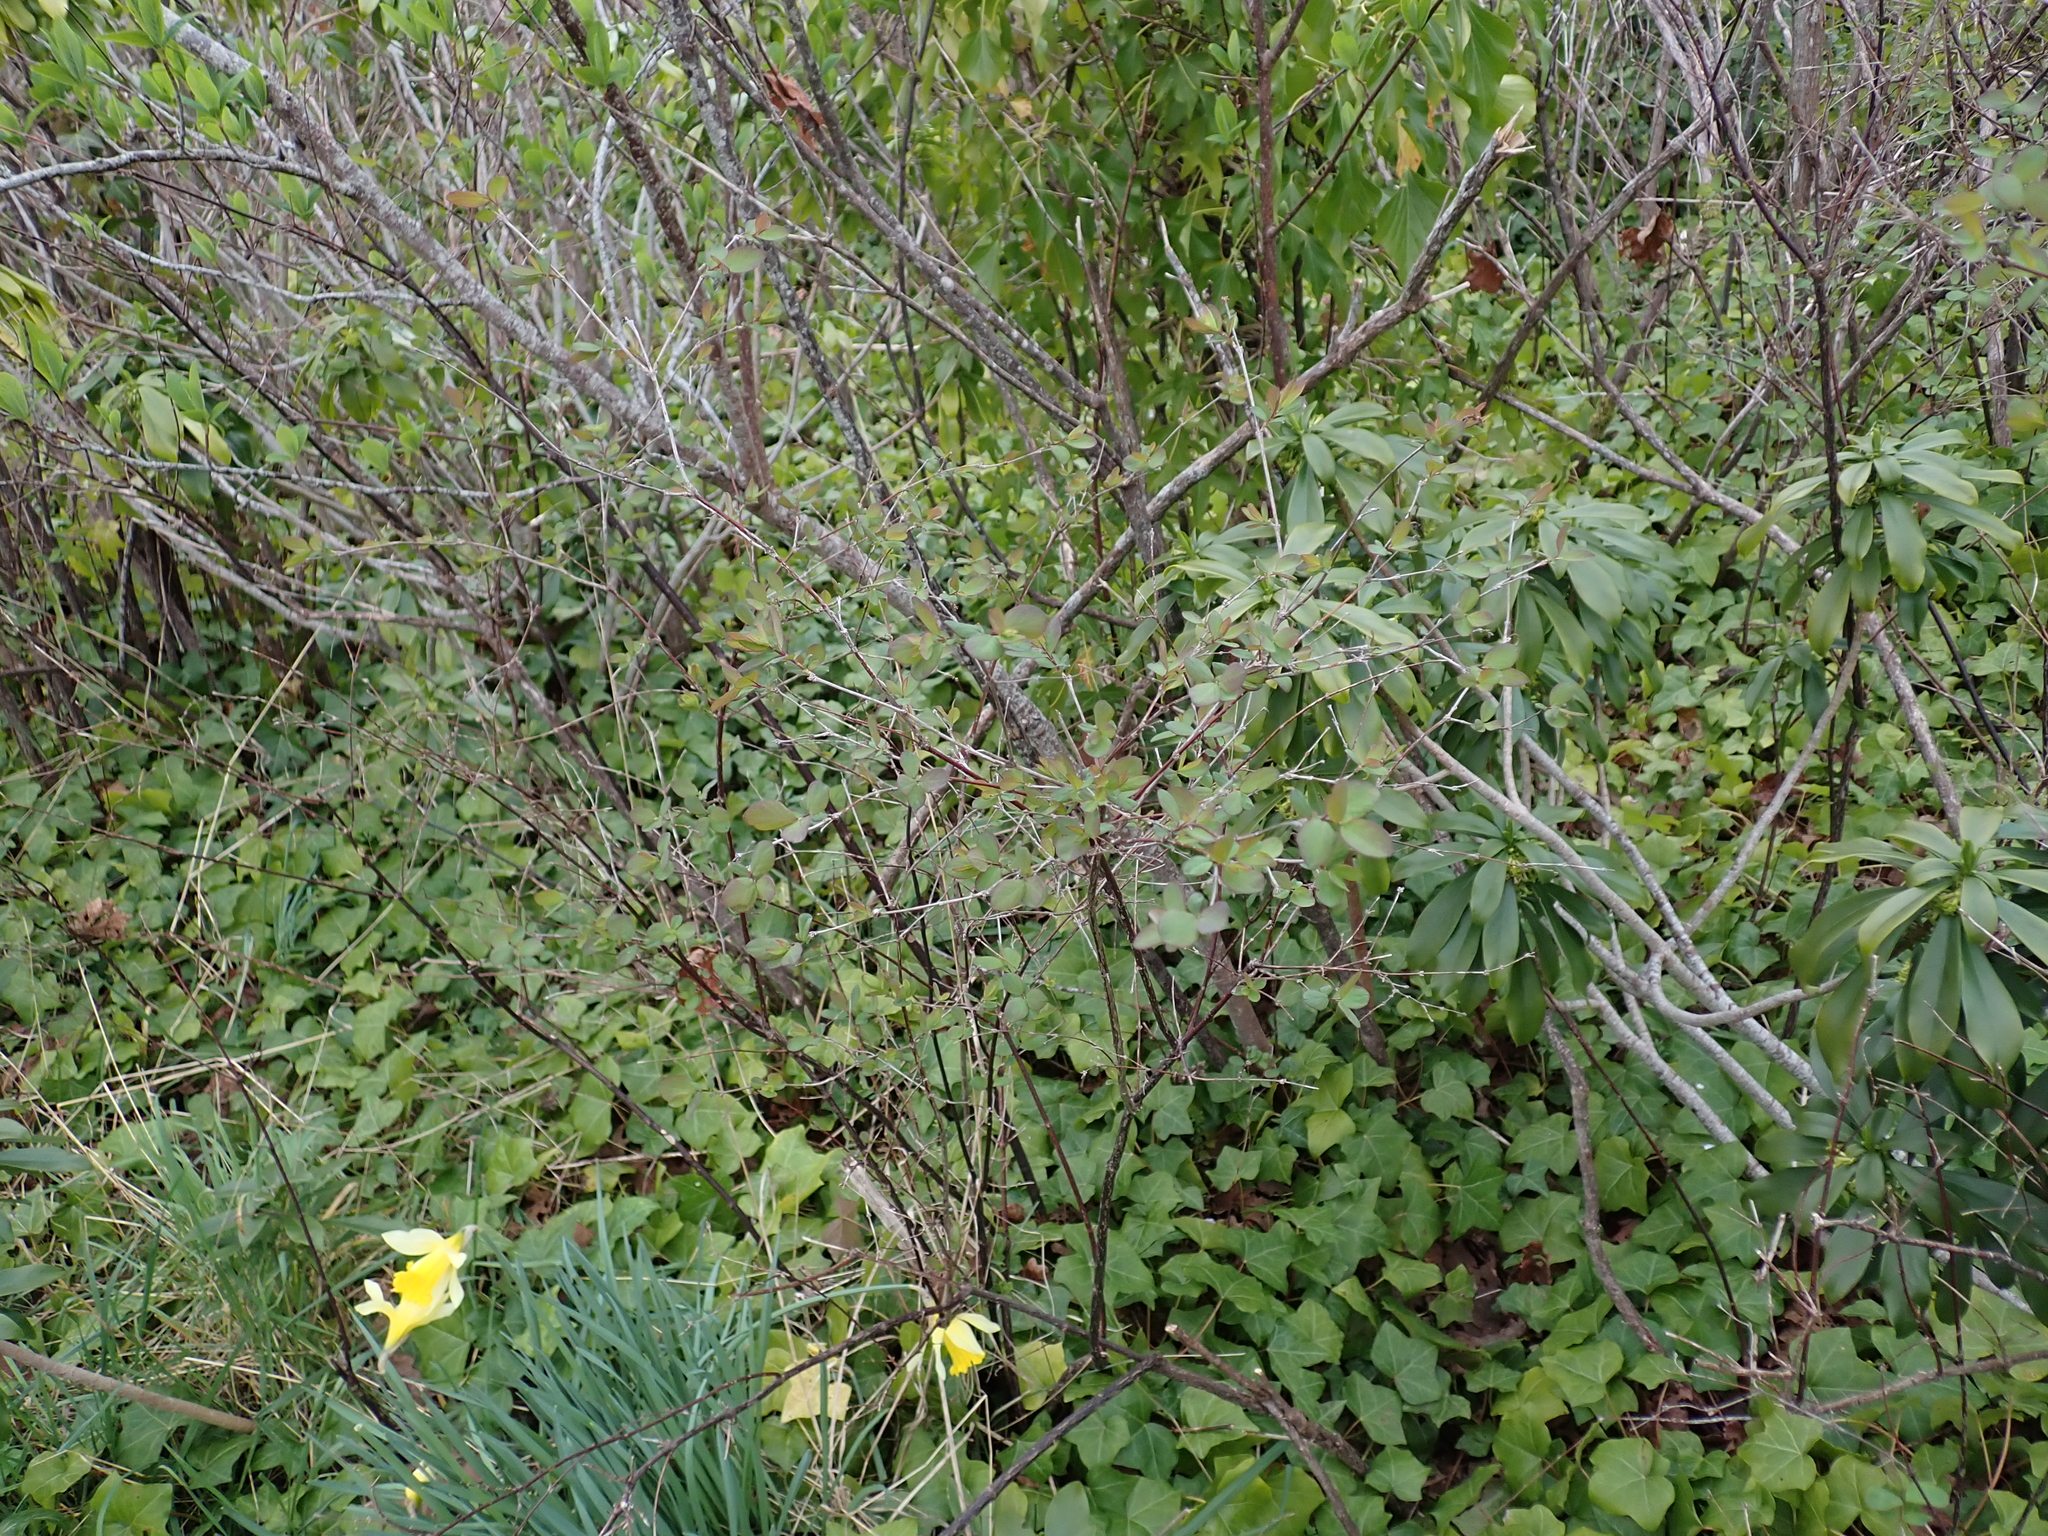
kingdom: Plantae
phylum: Tracheophyta
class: Magnoliopsida
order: Dipsacales
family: Caprifoliaceae
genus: Symphoricarpos
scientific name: Symphoricarpos albus
